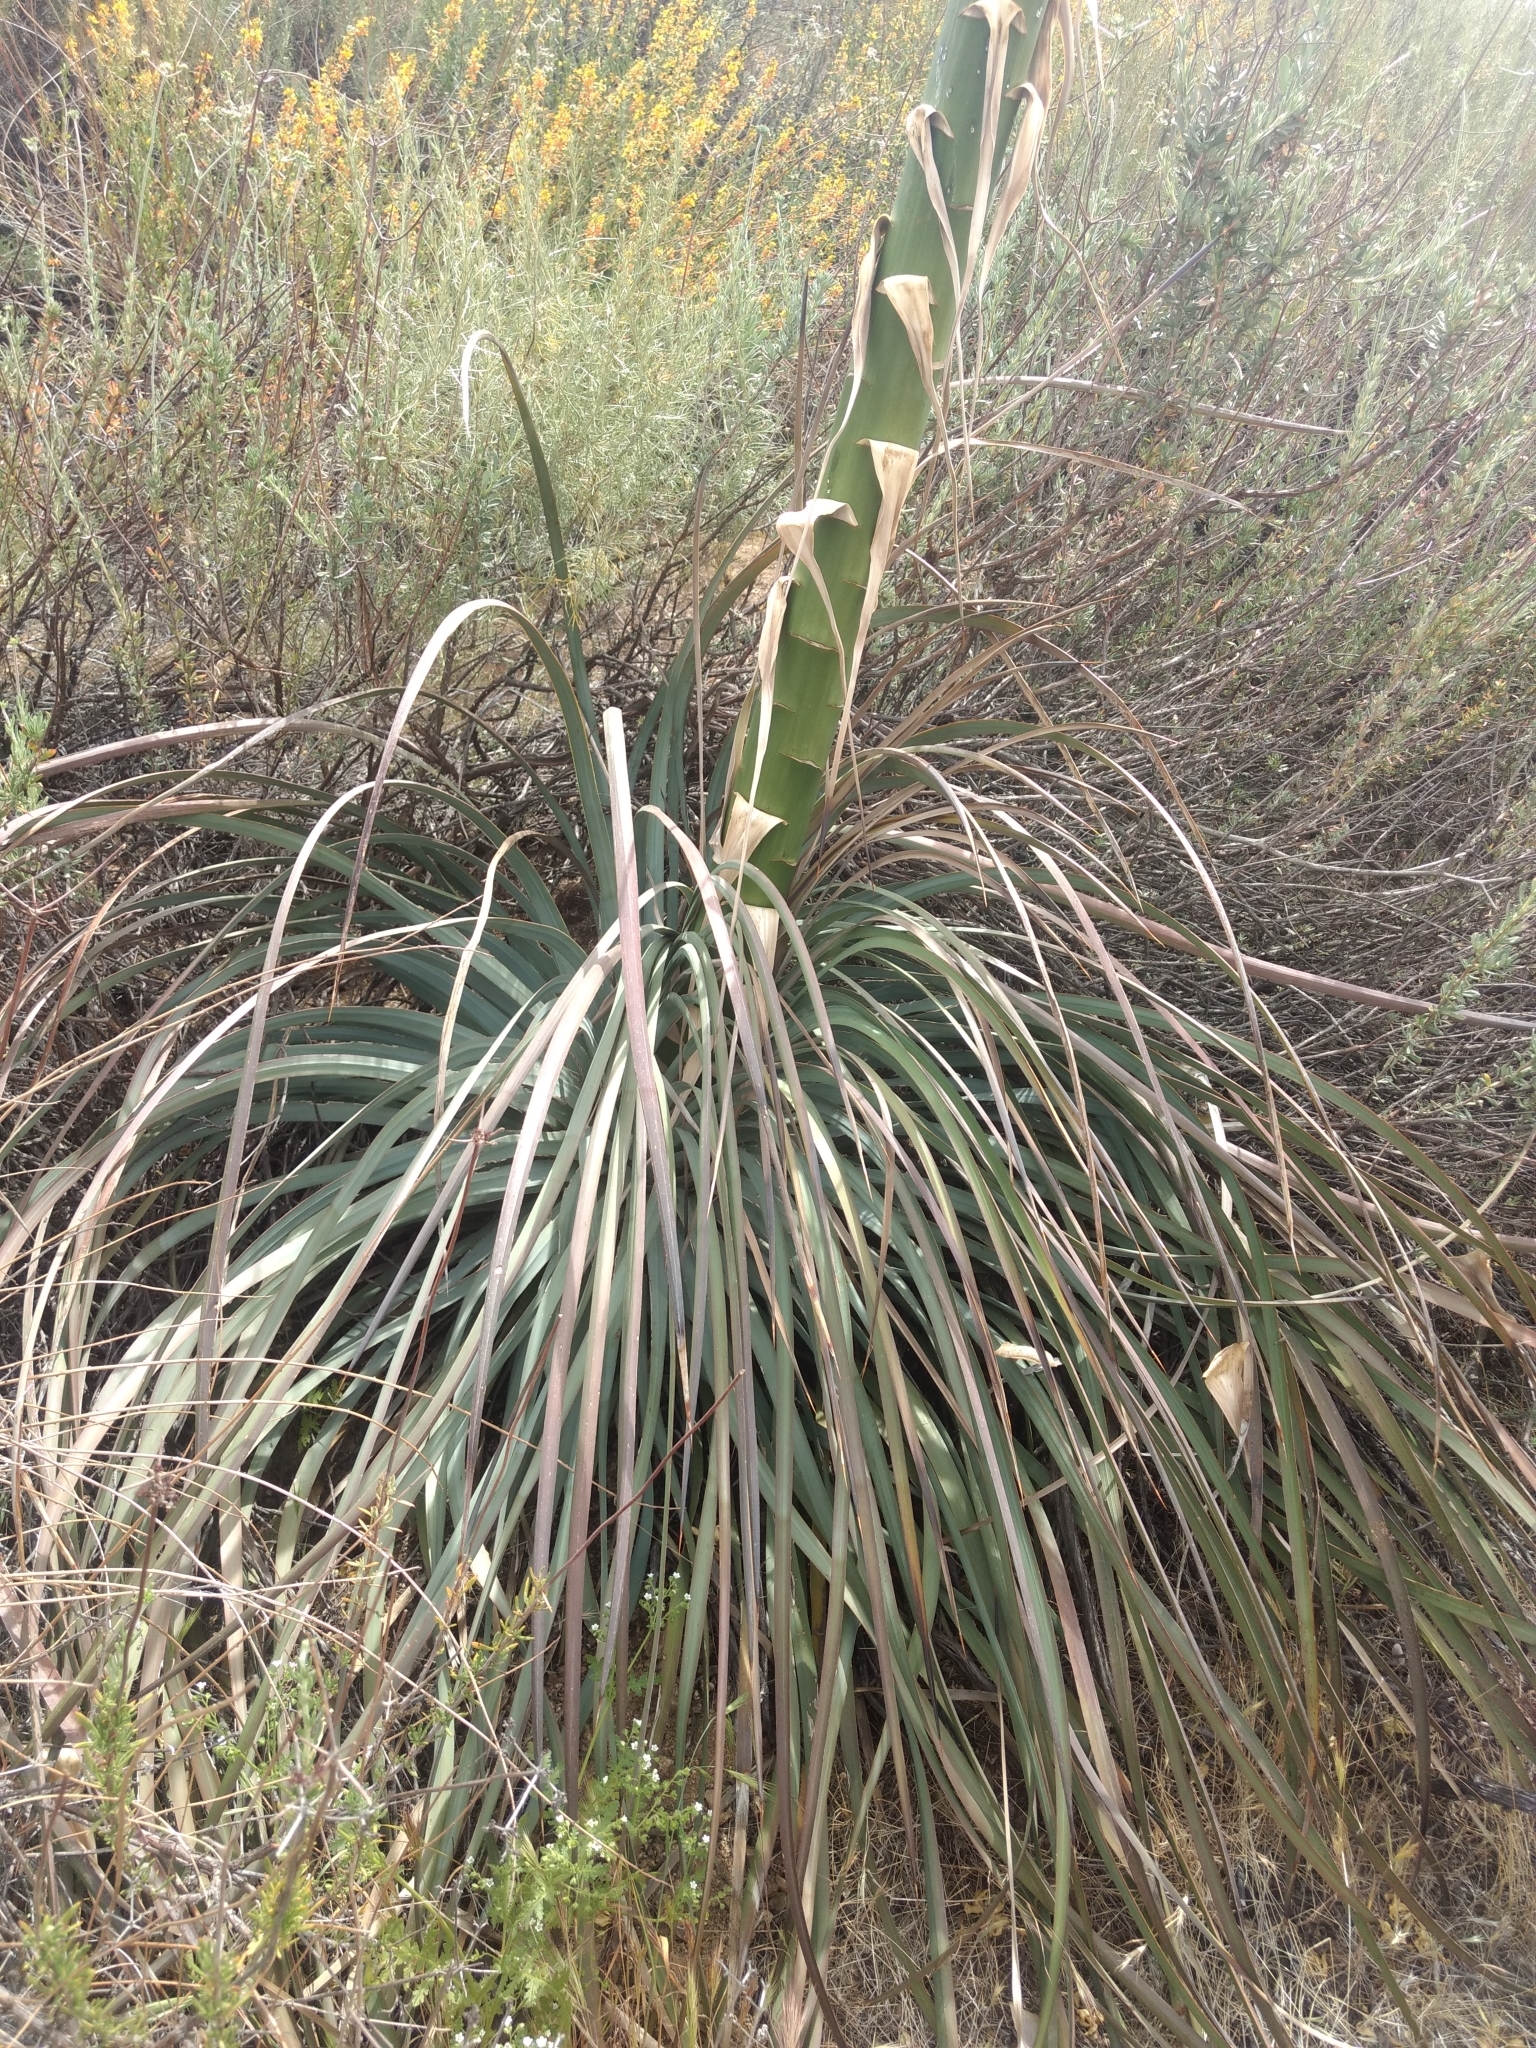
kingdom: Plantae
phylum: Tracheophyta
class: Liliopsida
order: Asparagales
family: Asparagaceae
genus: Hesperoyucca
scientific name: Hesperoyucca whipplei
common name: Our lord's-candle
